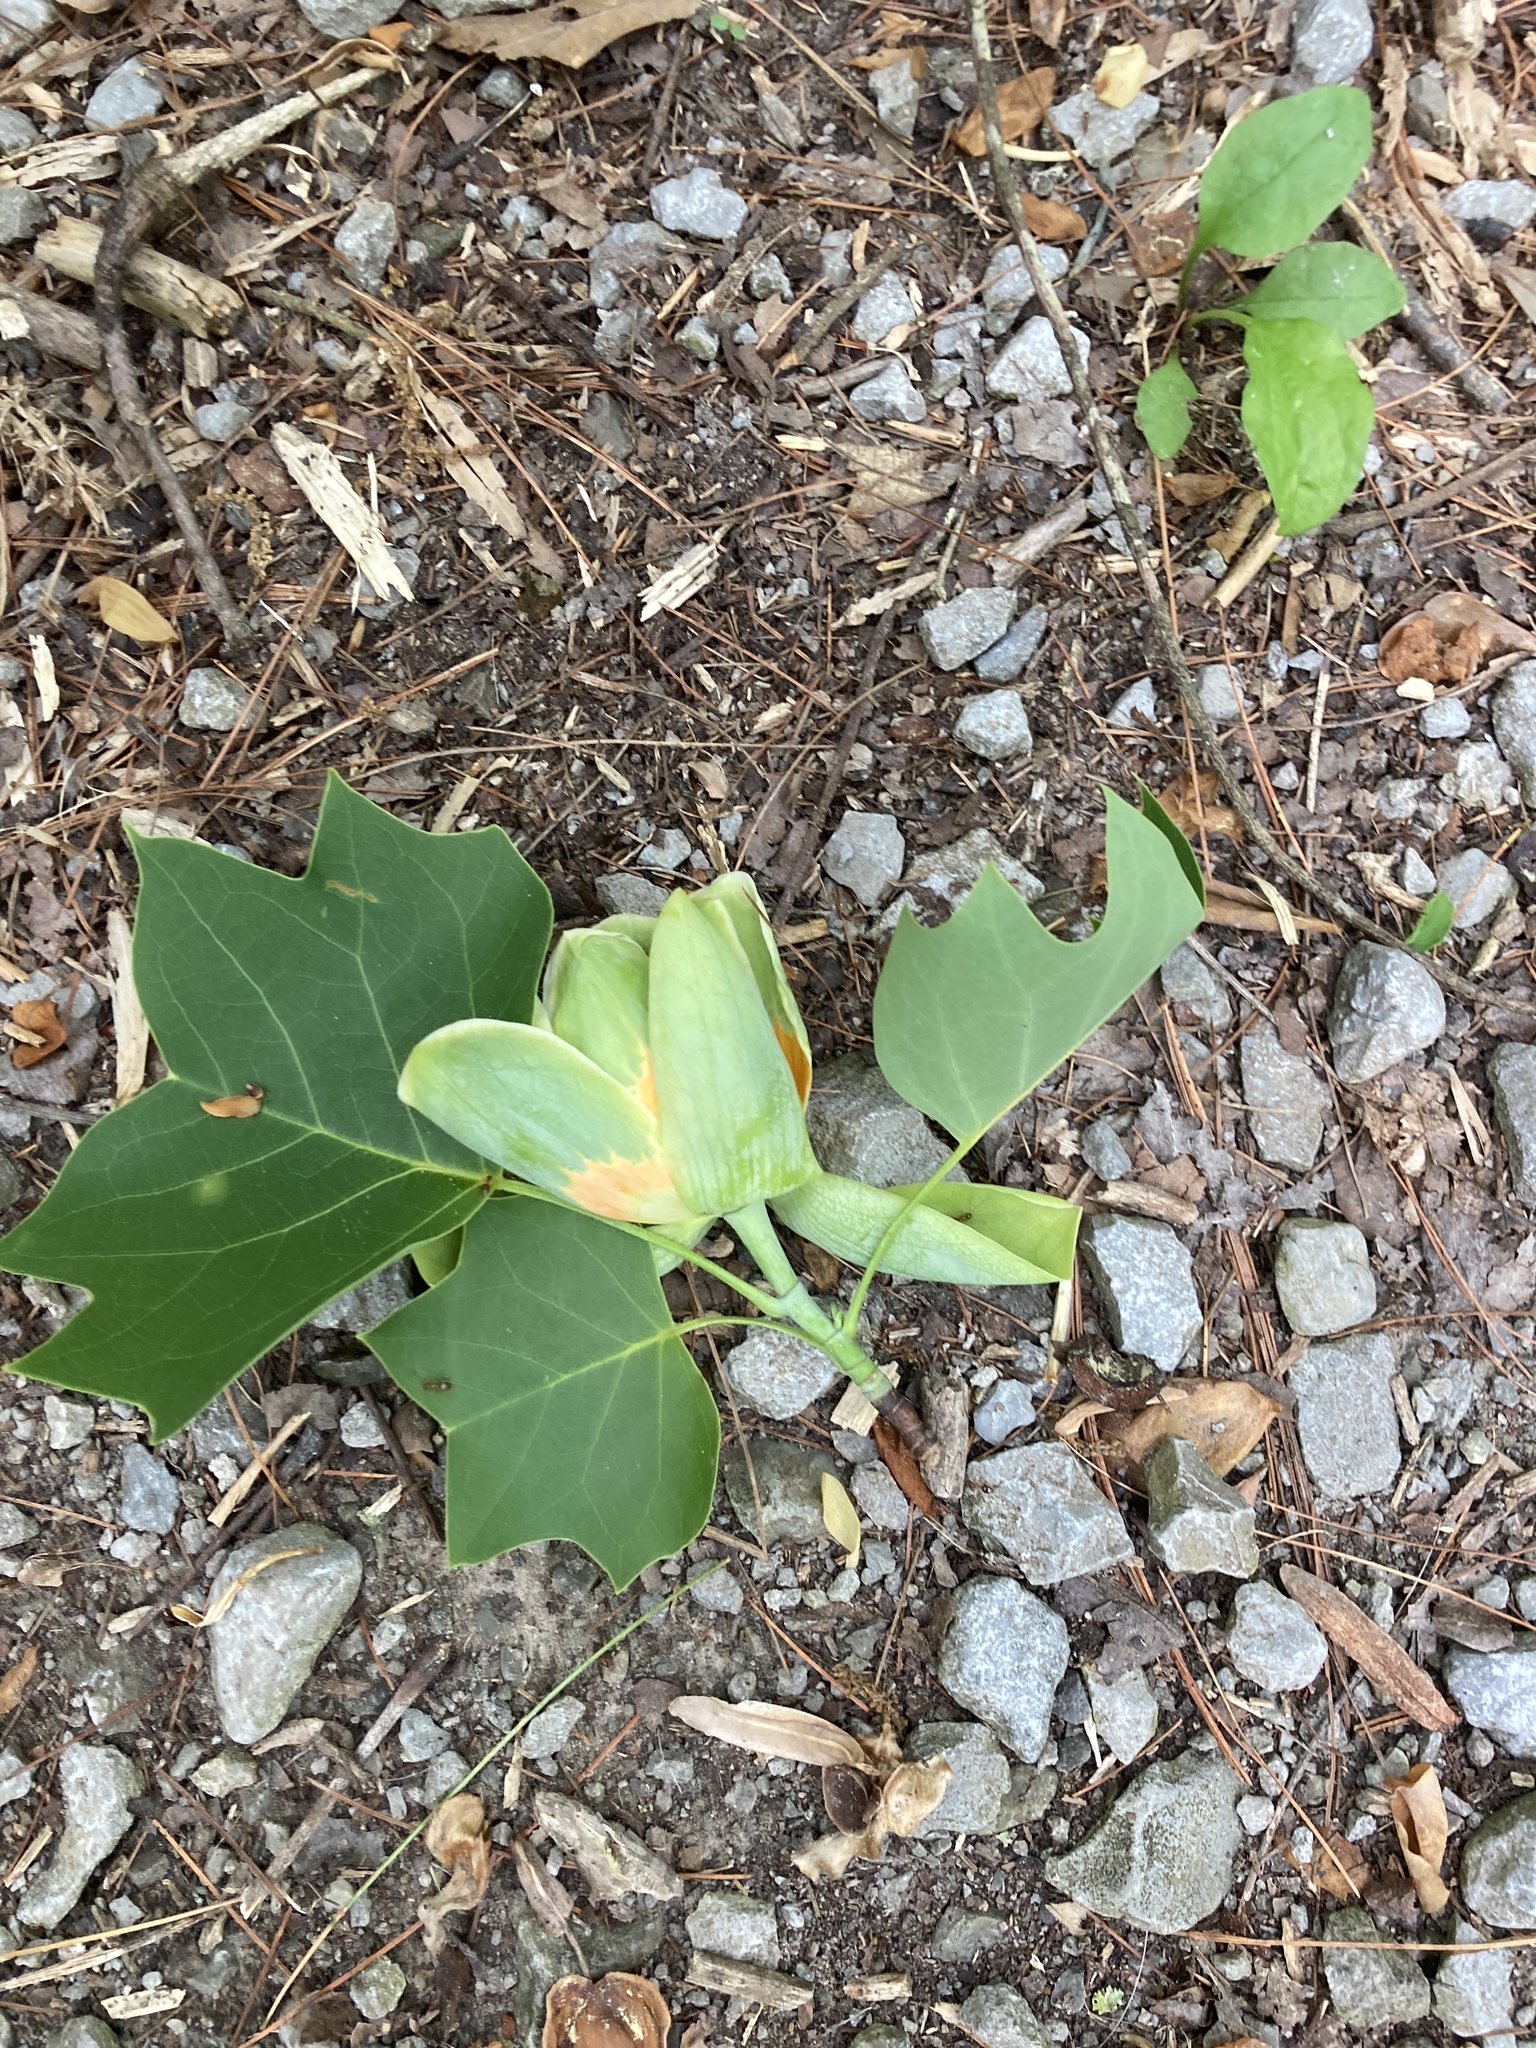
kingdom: Plantae
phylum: Tracheophyta
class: Magnoliopsida
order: Magnoliales
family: Magnoliaceae
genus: Liriodendron
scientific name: Liriodendron tulipifera
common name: Tulip tree
